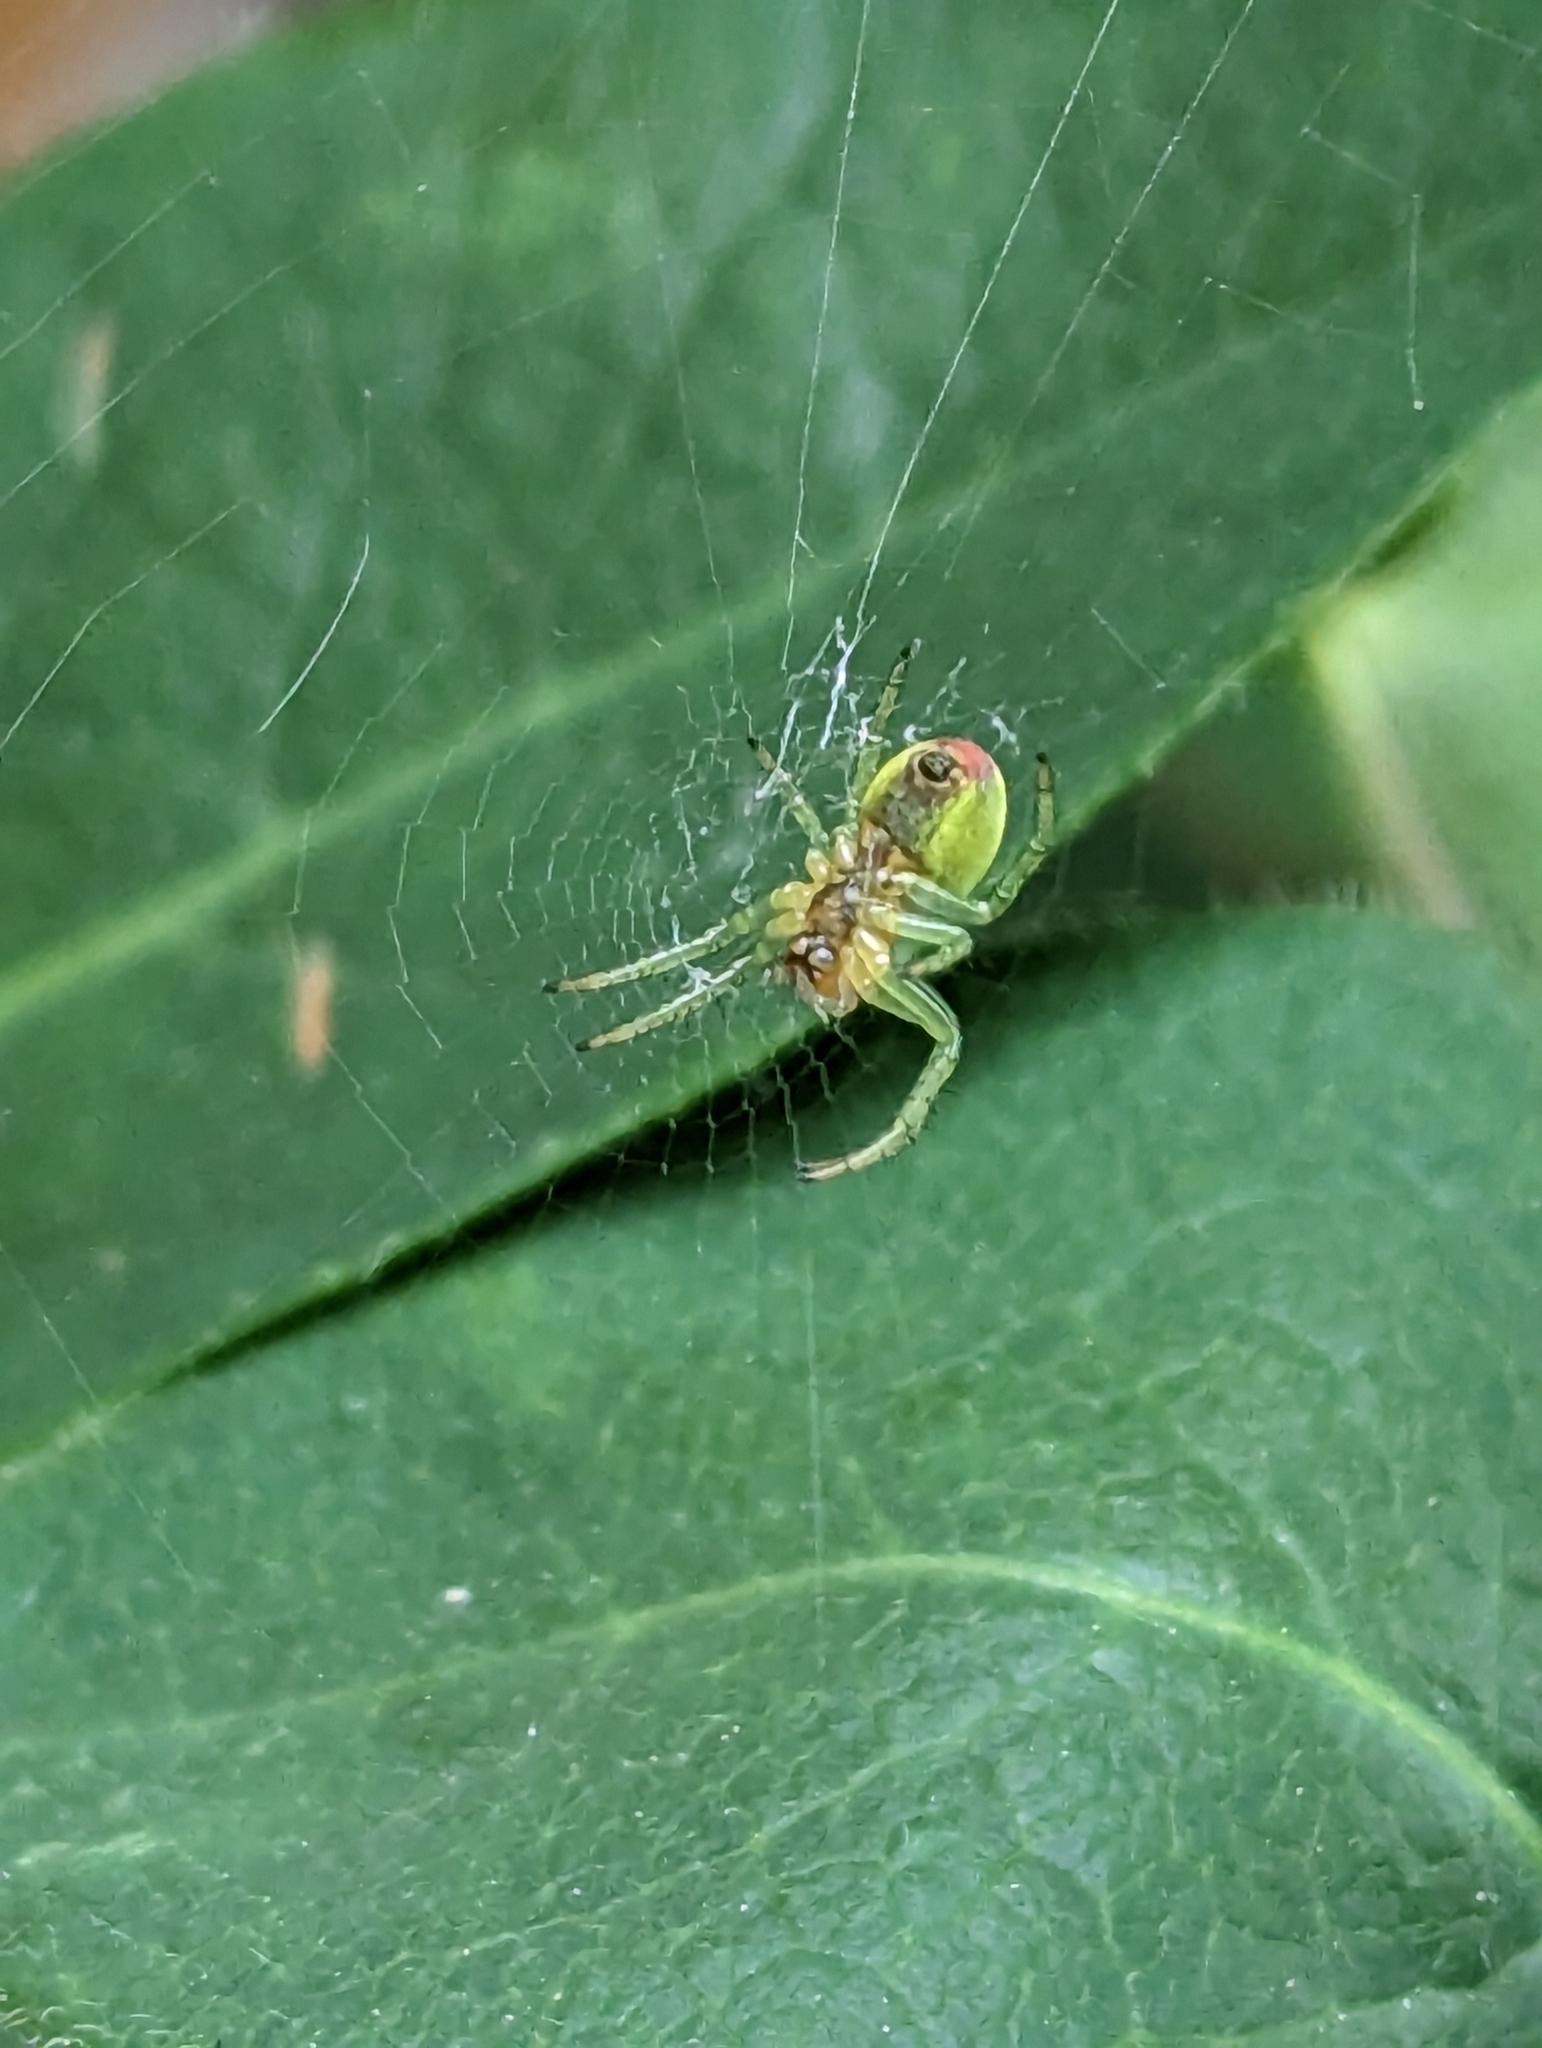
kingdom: Animalia
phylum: Arthropoda
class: Arachnida
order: Araneae
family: Araneidae
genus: Araniella
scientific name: Araniella
